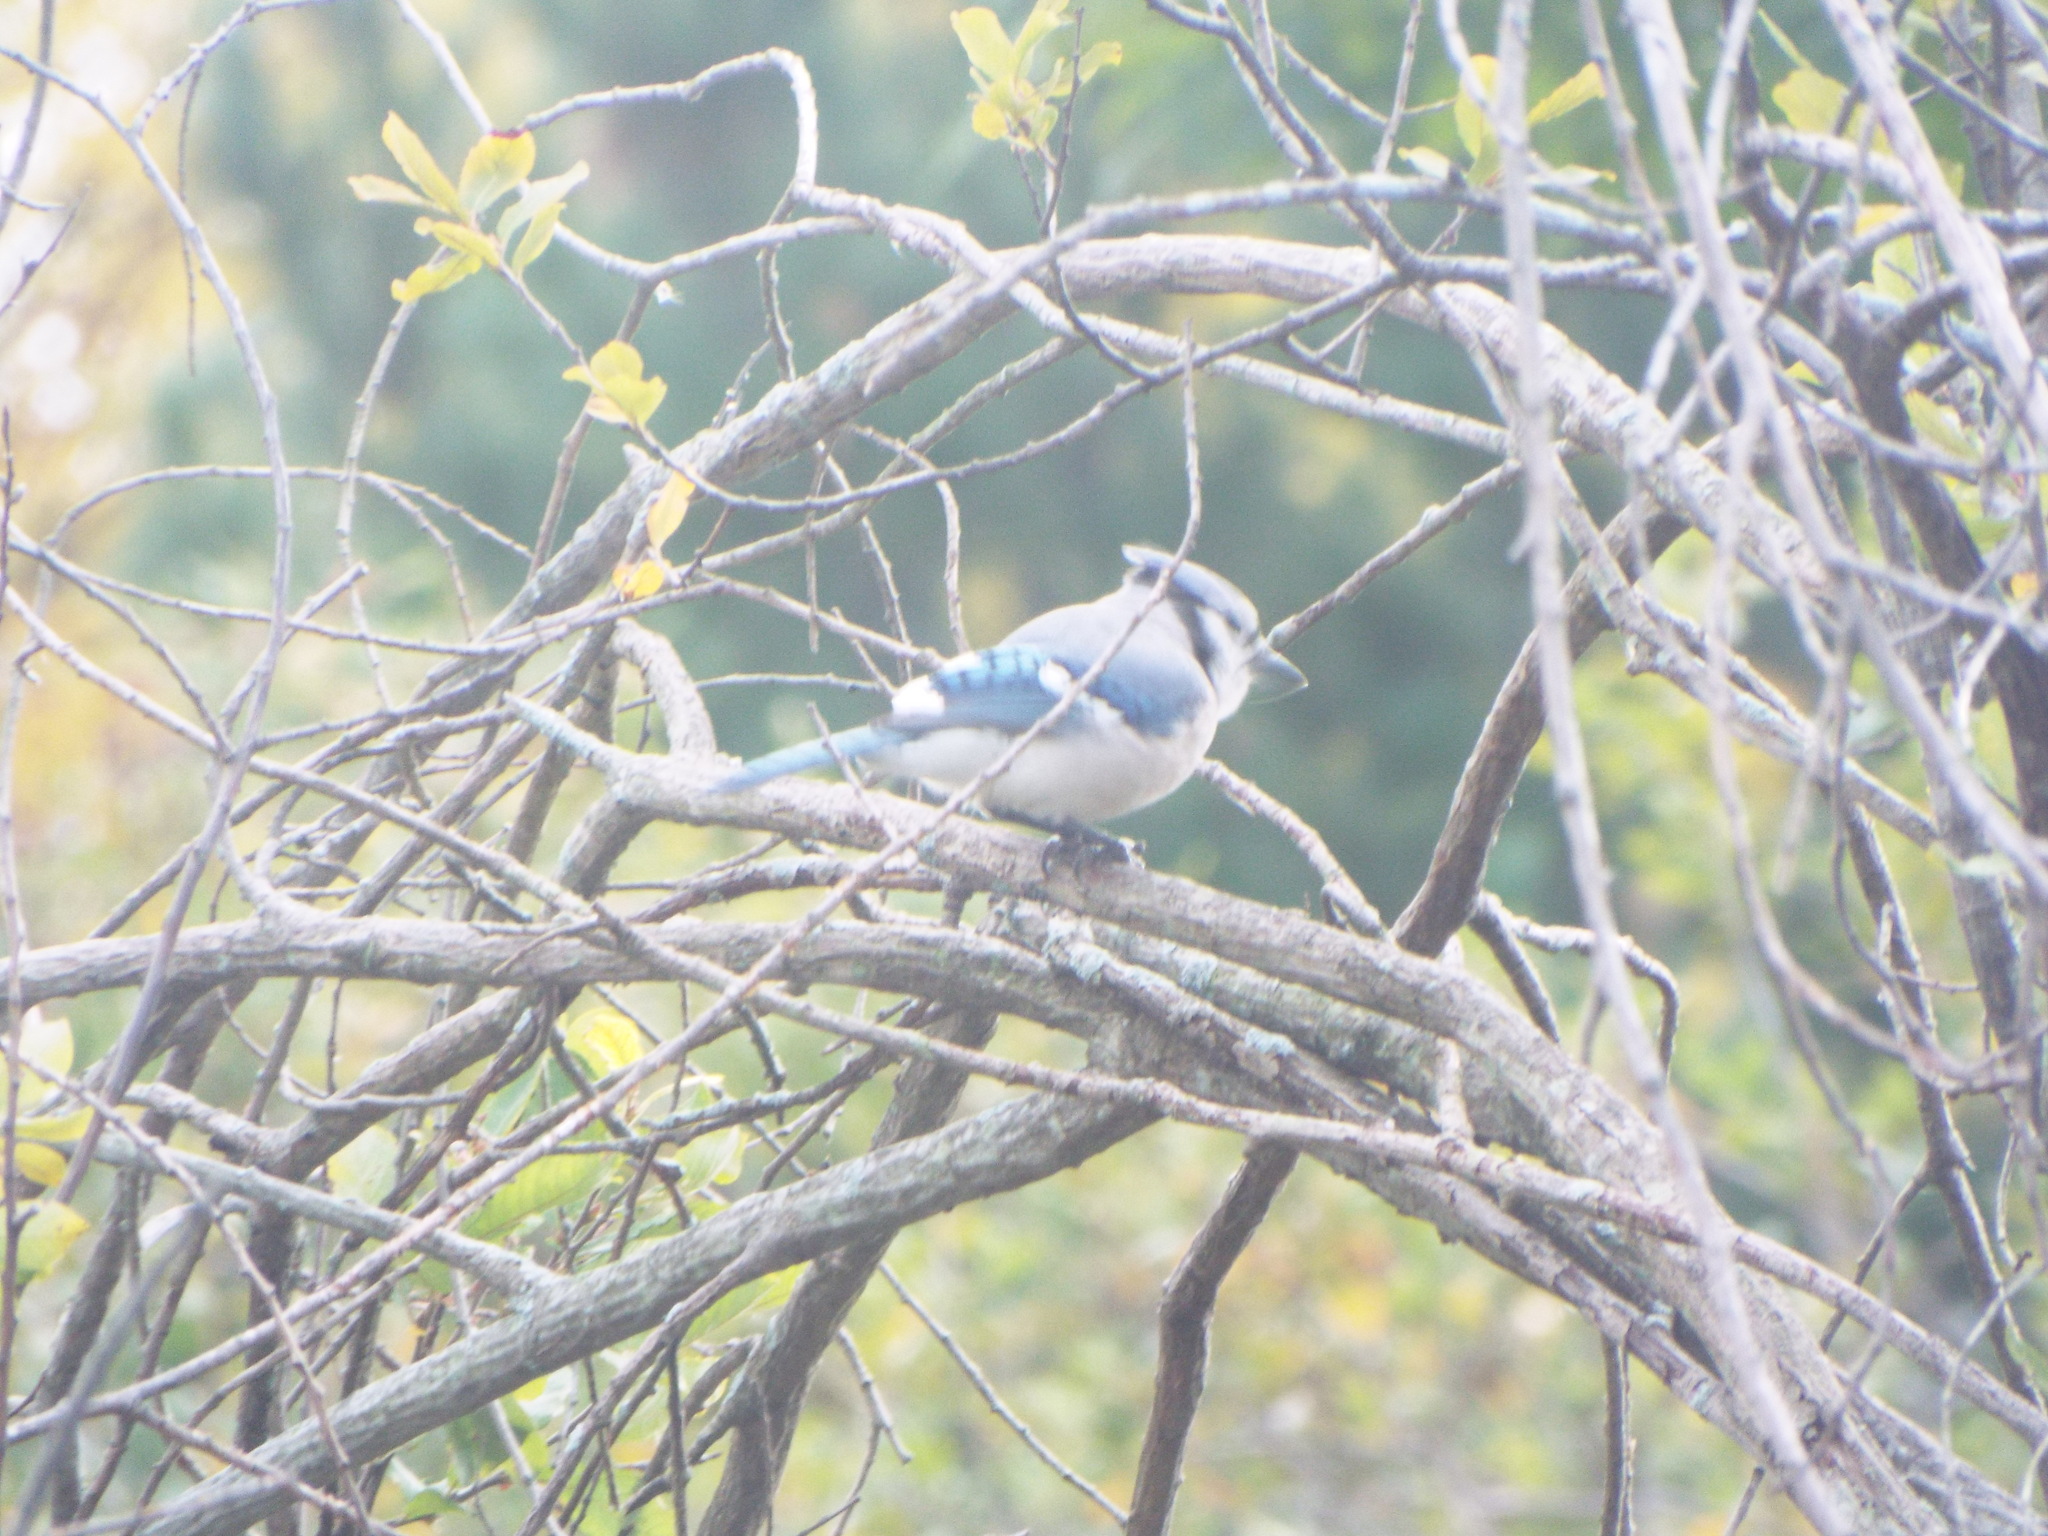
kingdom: Animalia
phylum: Chordata
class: Aves
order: Passeriformes
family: Corvidae
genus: Cyanocitta
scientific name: Cyanocitta cristata
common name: Blue jay
